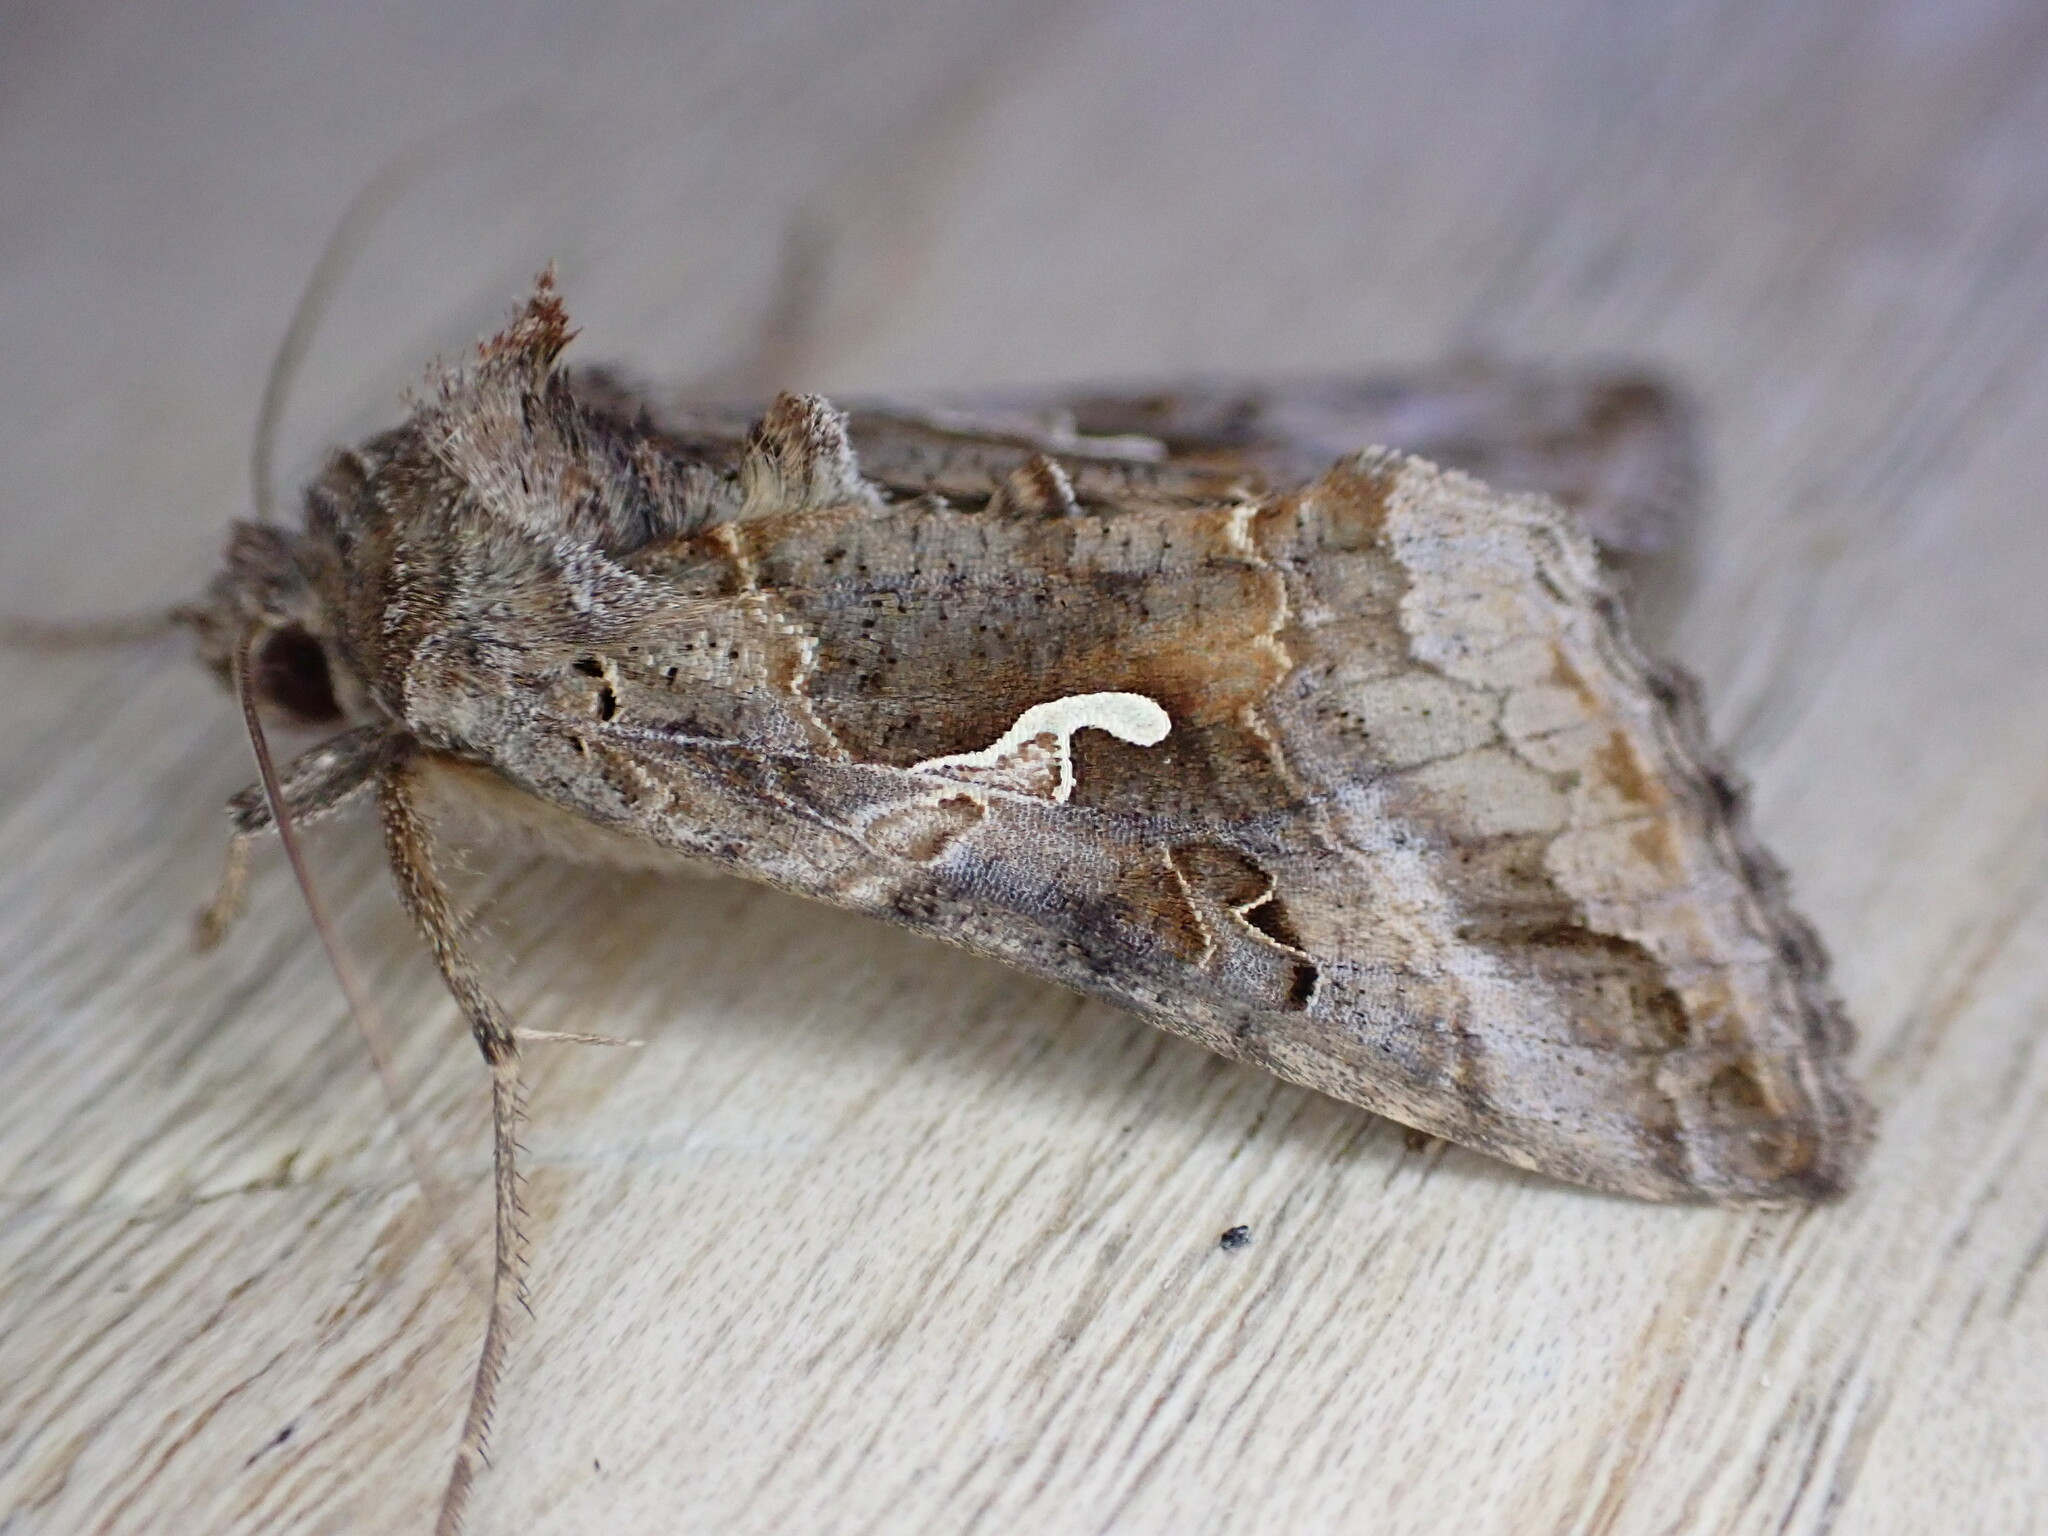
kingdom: Animalia
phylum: Arthropoda
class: Insecta
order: Lepidoptera
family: Noctuidae
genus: Autographa
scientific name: Autographa gamma
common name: Silver y
